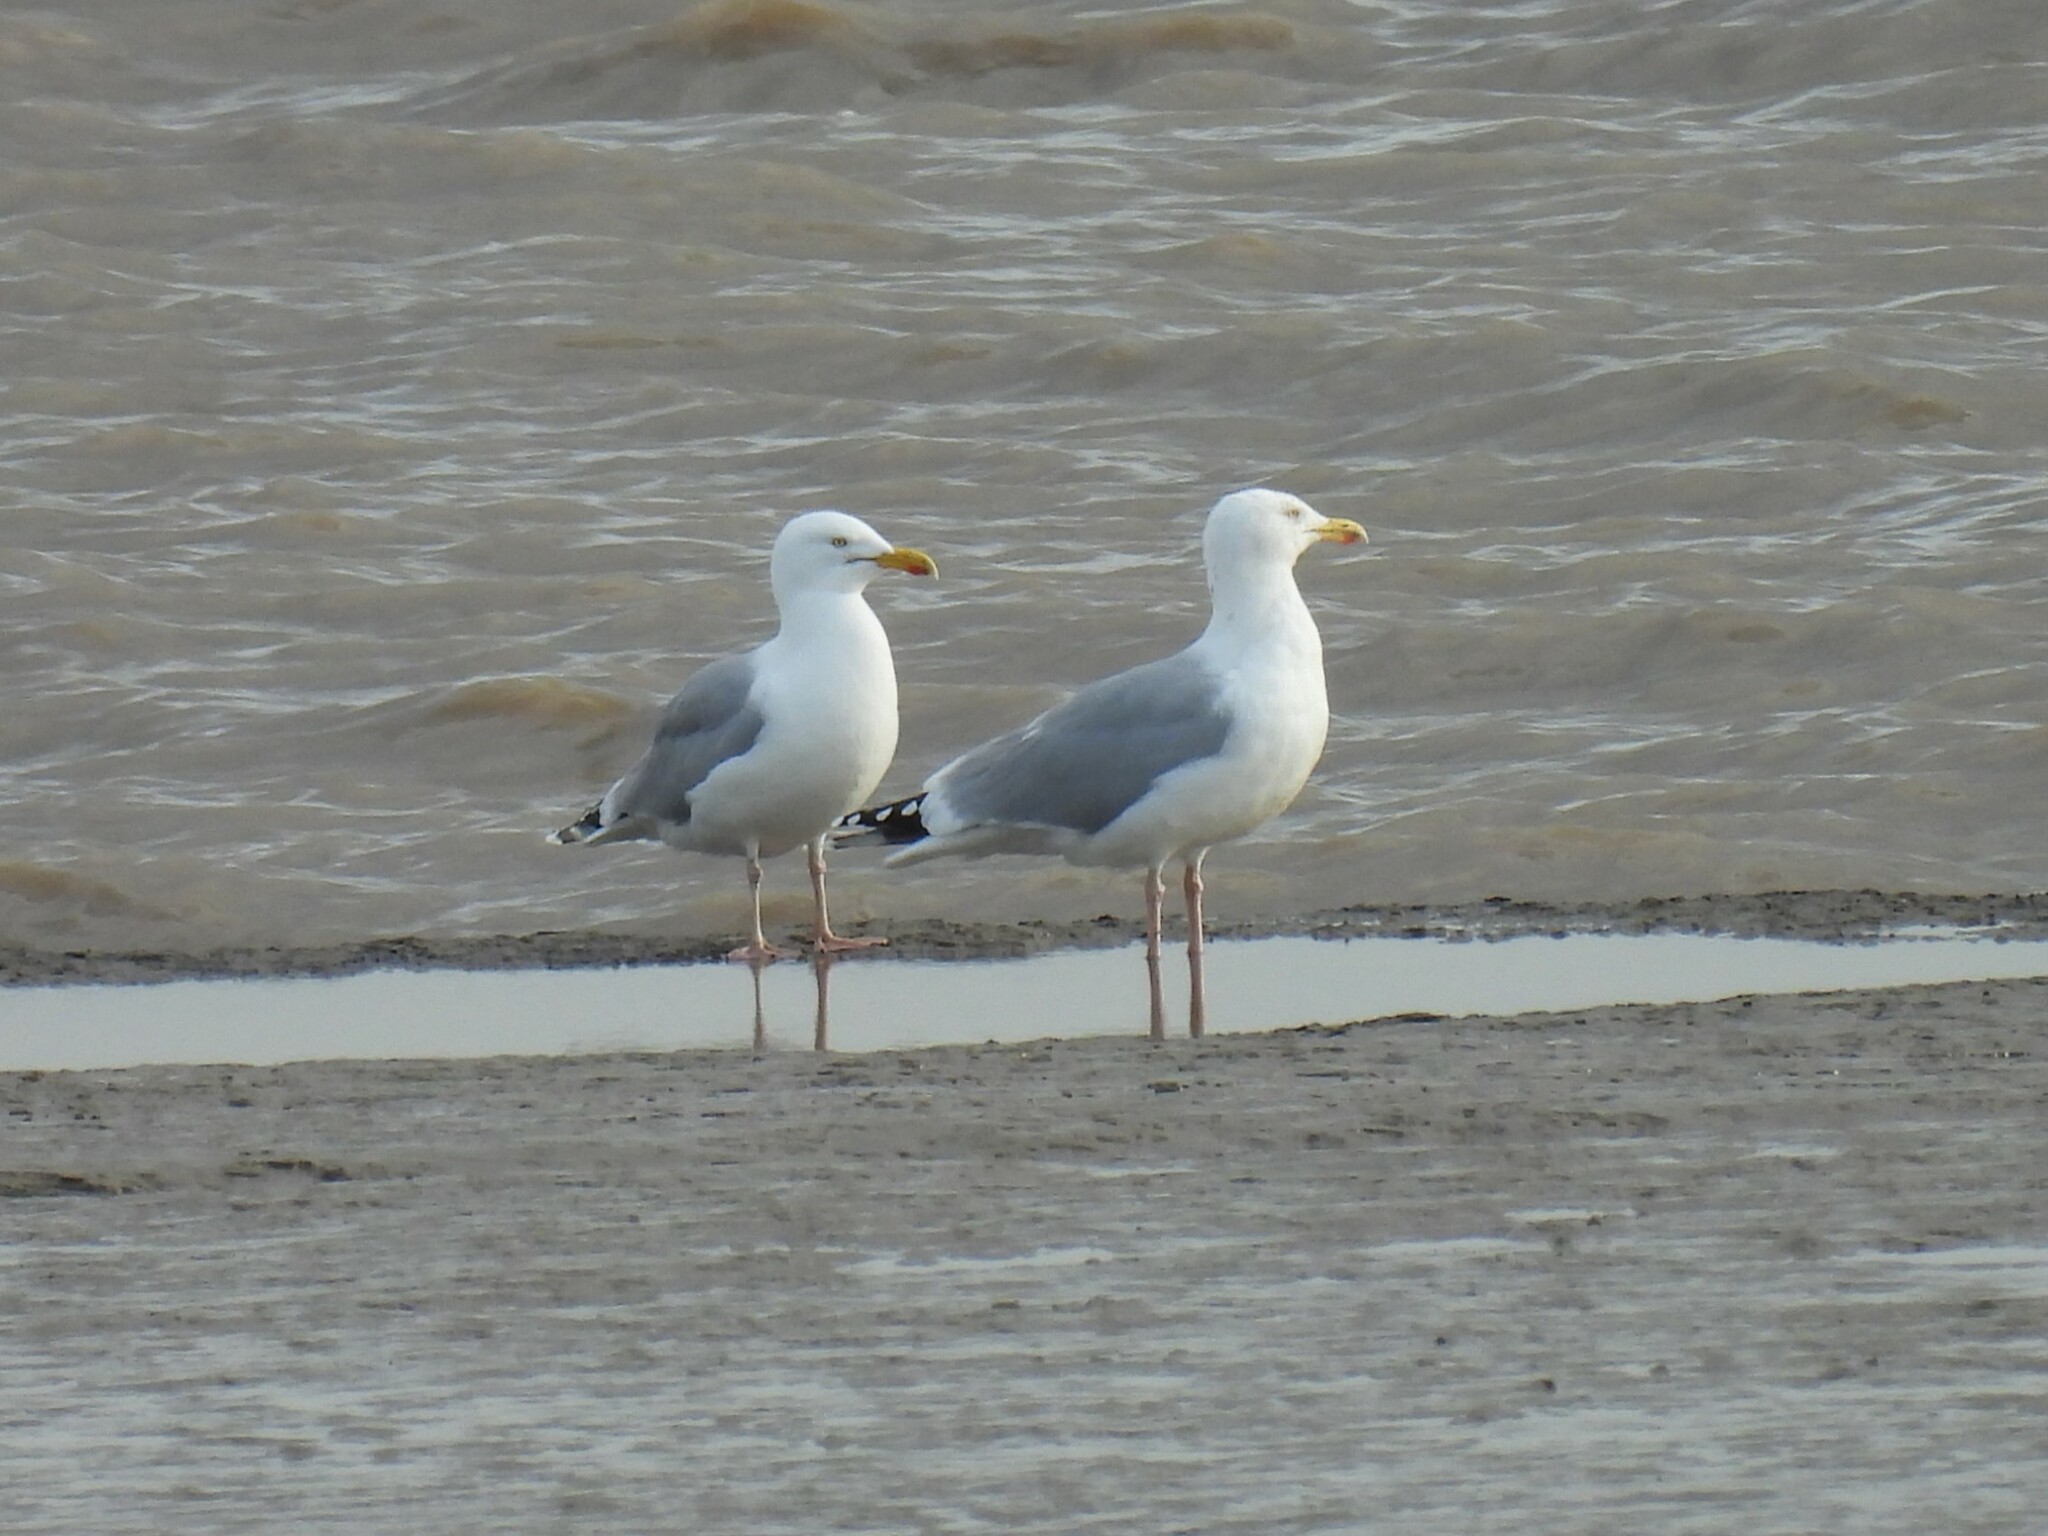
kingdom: Animalia
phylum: Chordata
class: Aves
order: Charadriiformes
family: Laridae
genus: Larus
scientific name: Larus argentatus
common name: Herring gull
